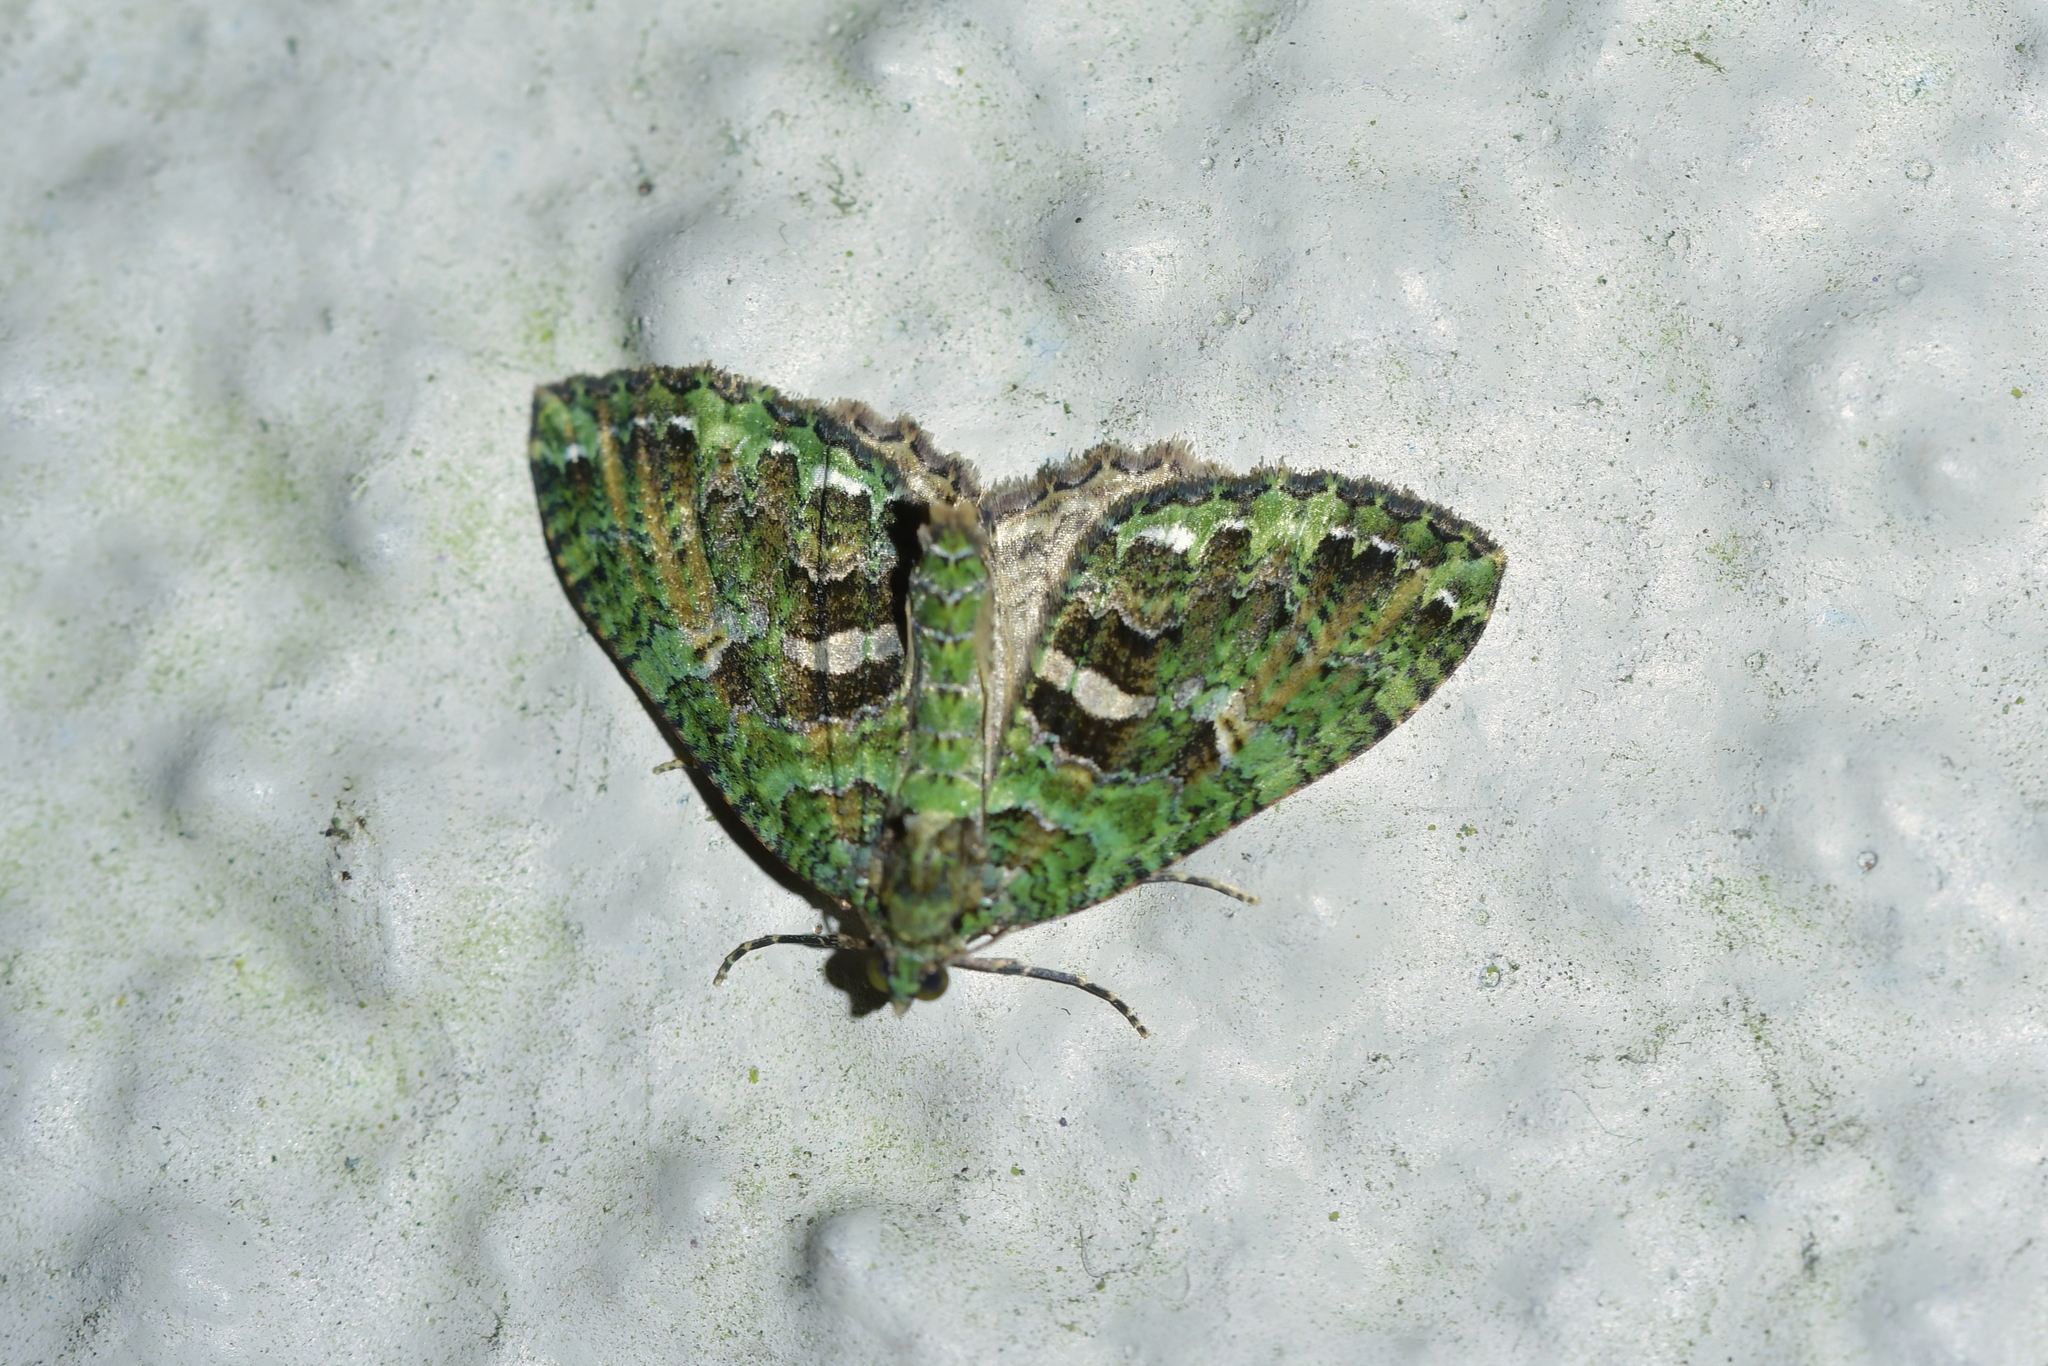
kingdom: Animalia
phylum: Arthropoda
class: Insecta
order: Lepidoptera
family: Geometridae
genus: Austrocidaria
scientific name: Austrocidaria similata
